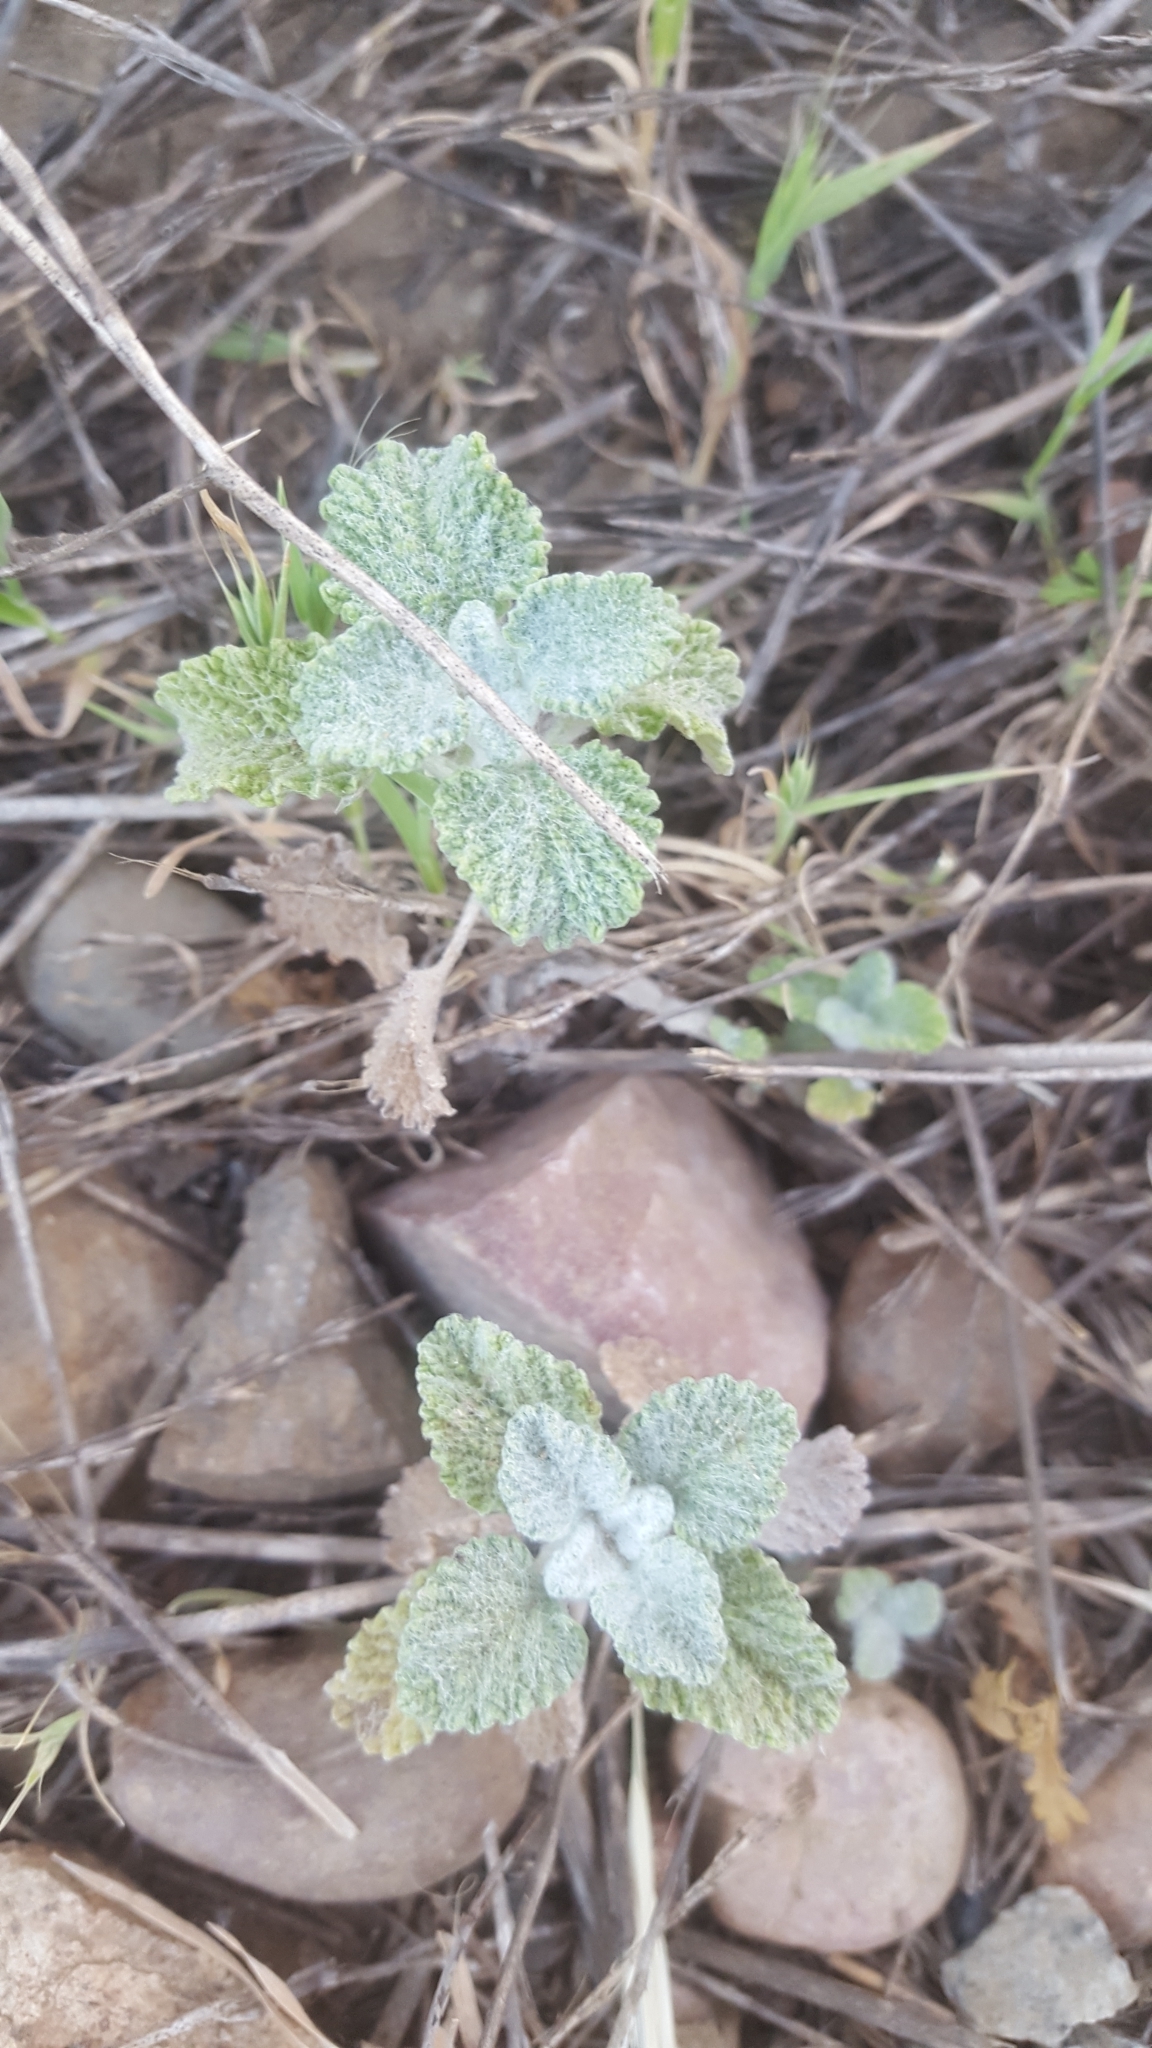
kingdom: Plantae
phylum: Tracheophyta
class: Magnoliopsida
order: Lamiales
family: Lamiaceae
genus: Marrubium
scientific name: Marrubium vulgare
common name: Horehound
